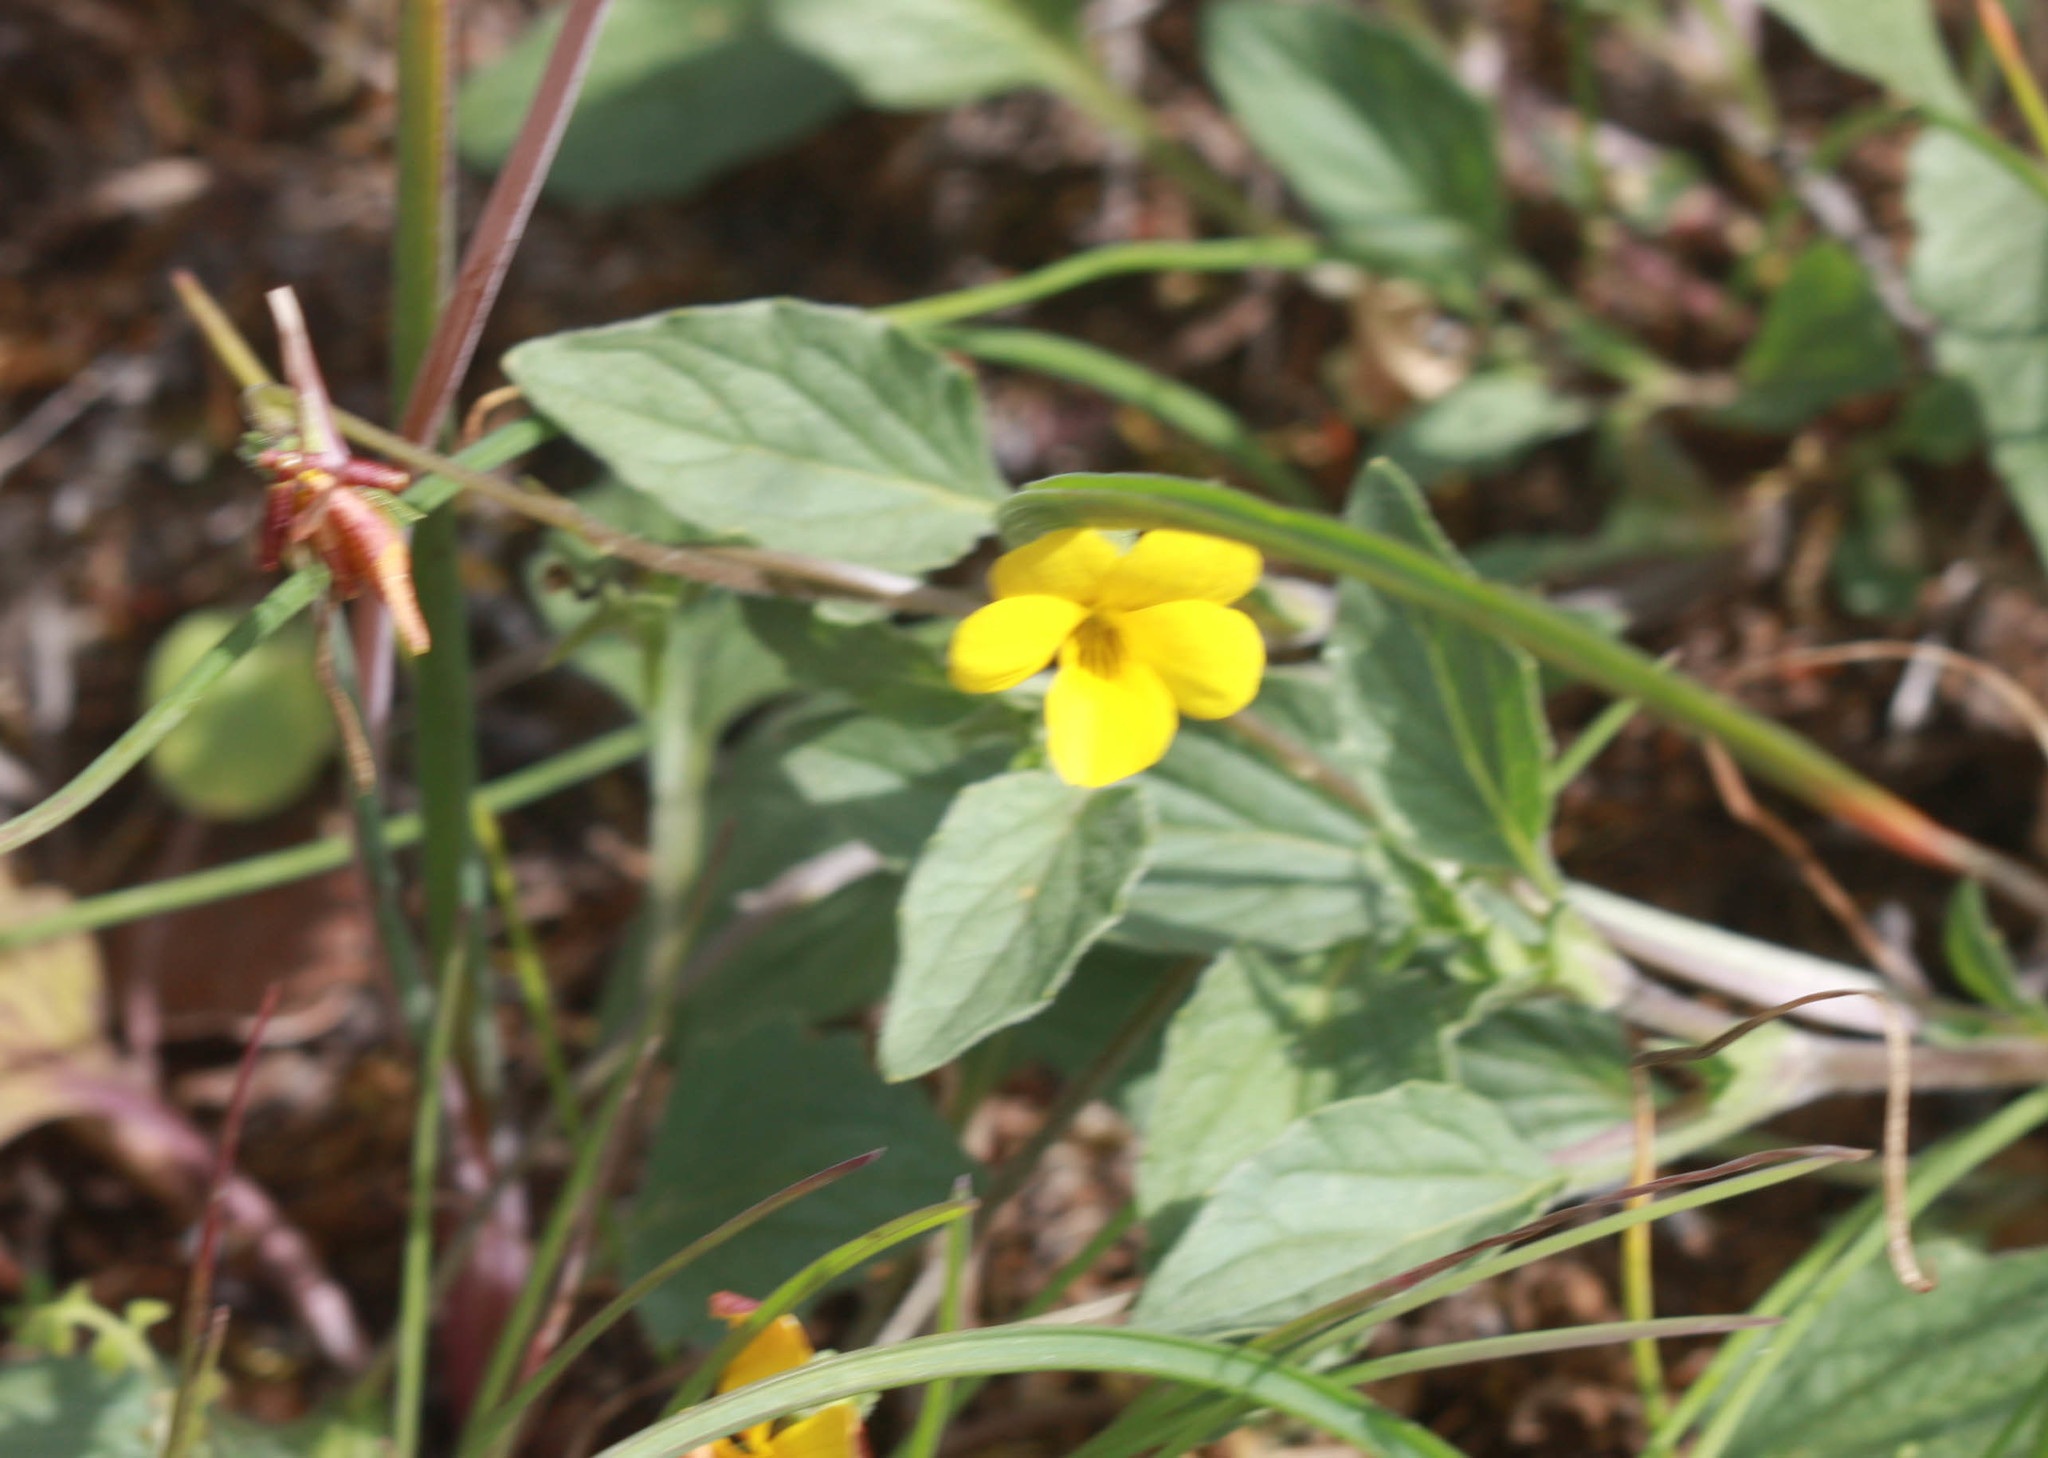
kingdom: Plantae
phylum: Tracheophyta
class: Magnoliopsida
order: Malpighiales
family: Violaceae
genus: Viola
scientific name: Viola purpurea
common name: Pine violet
